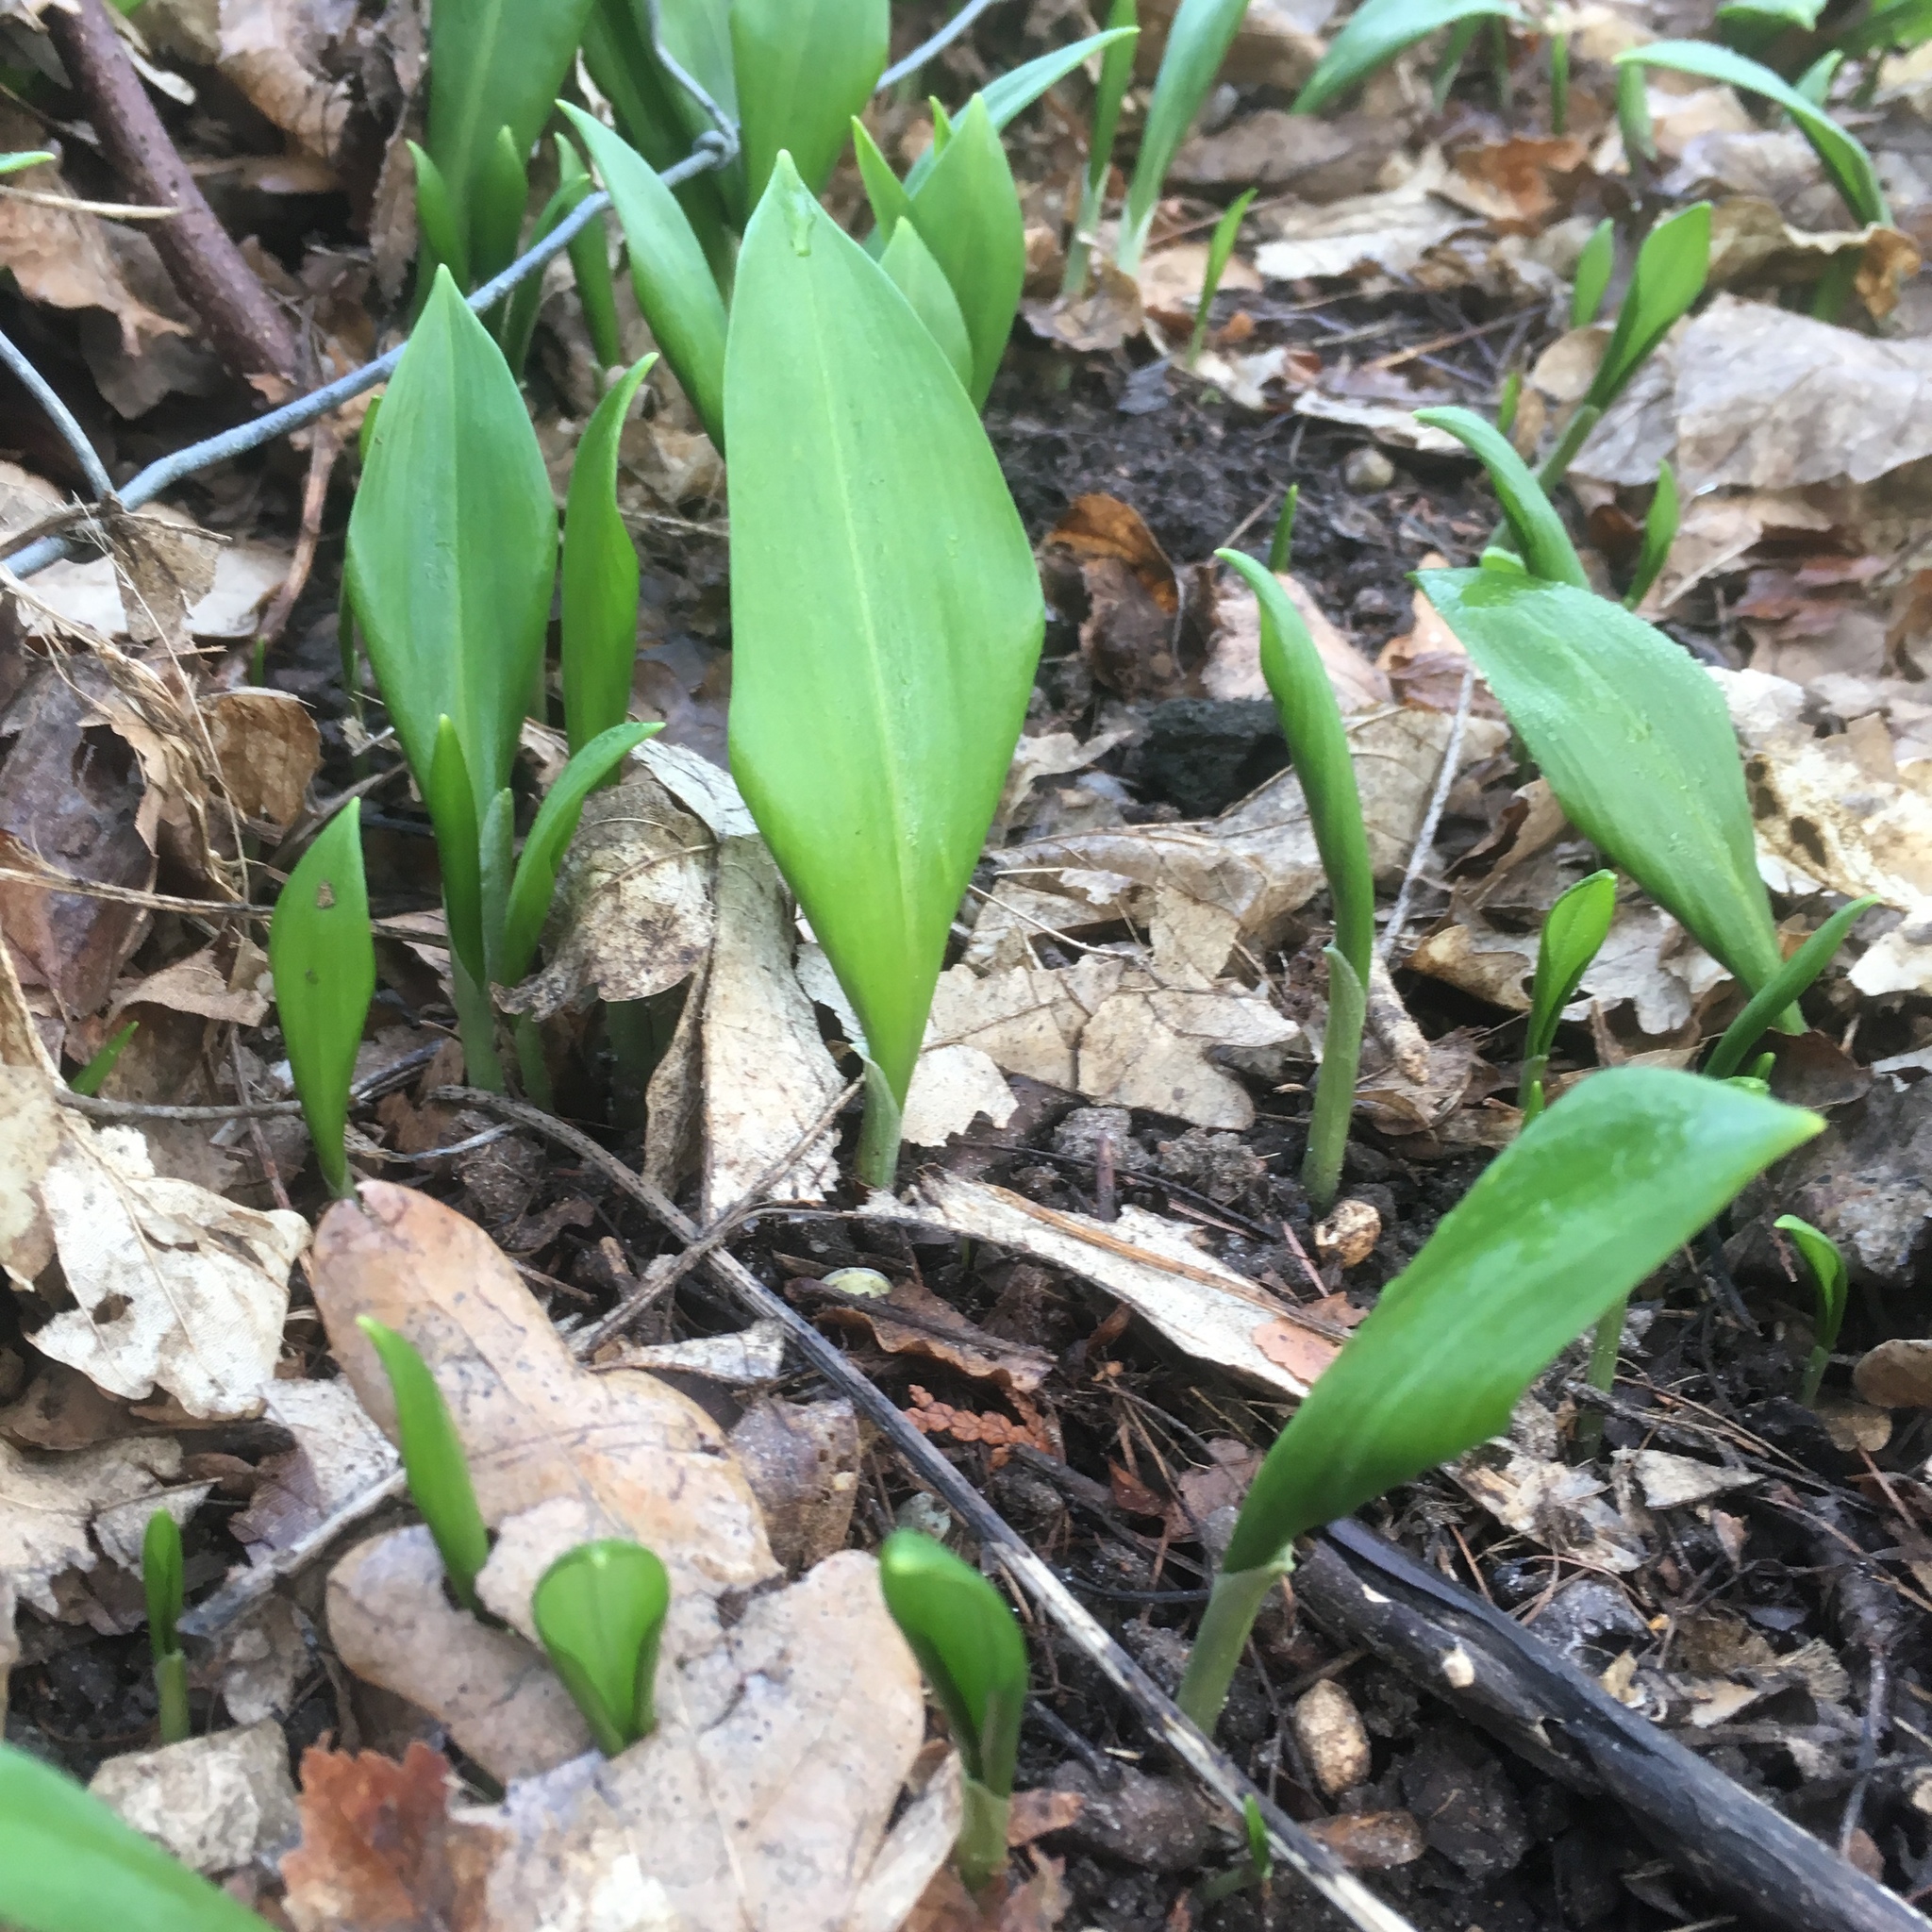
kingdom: Plantae
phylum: Tracheophyta
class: Liliopsida
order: Asparagales
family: Amaryllidaceae
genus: Allium
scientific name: Allium ursinum
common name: Ramsons
